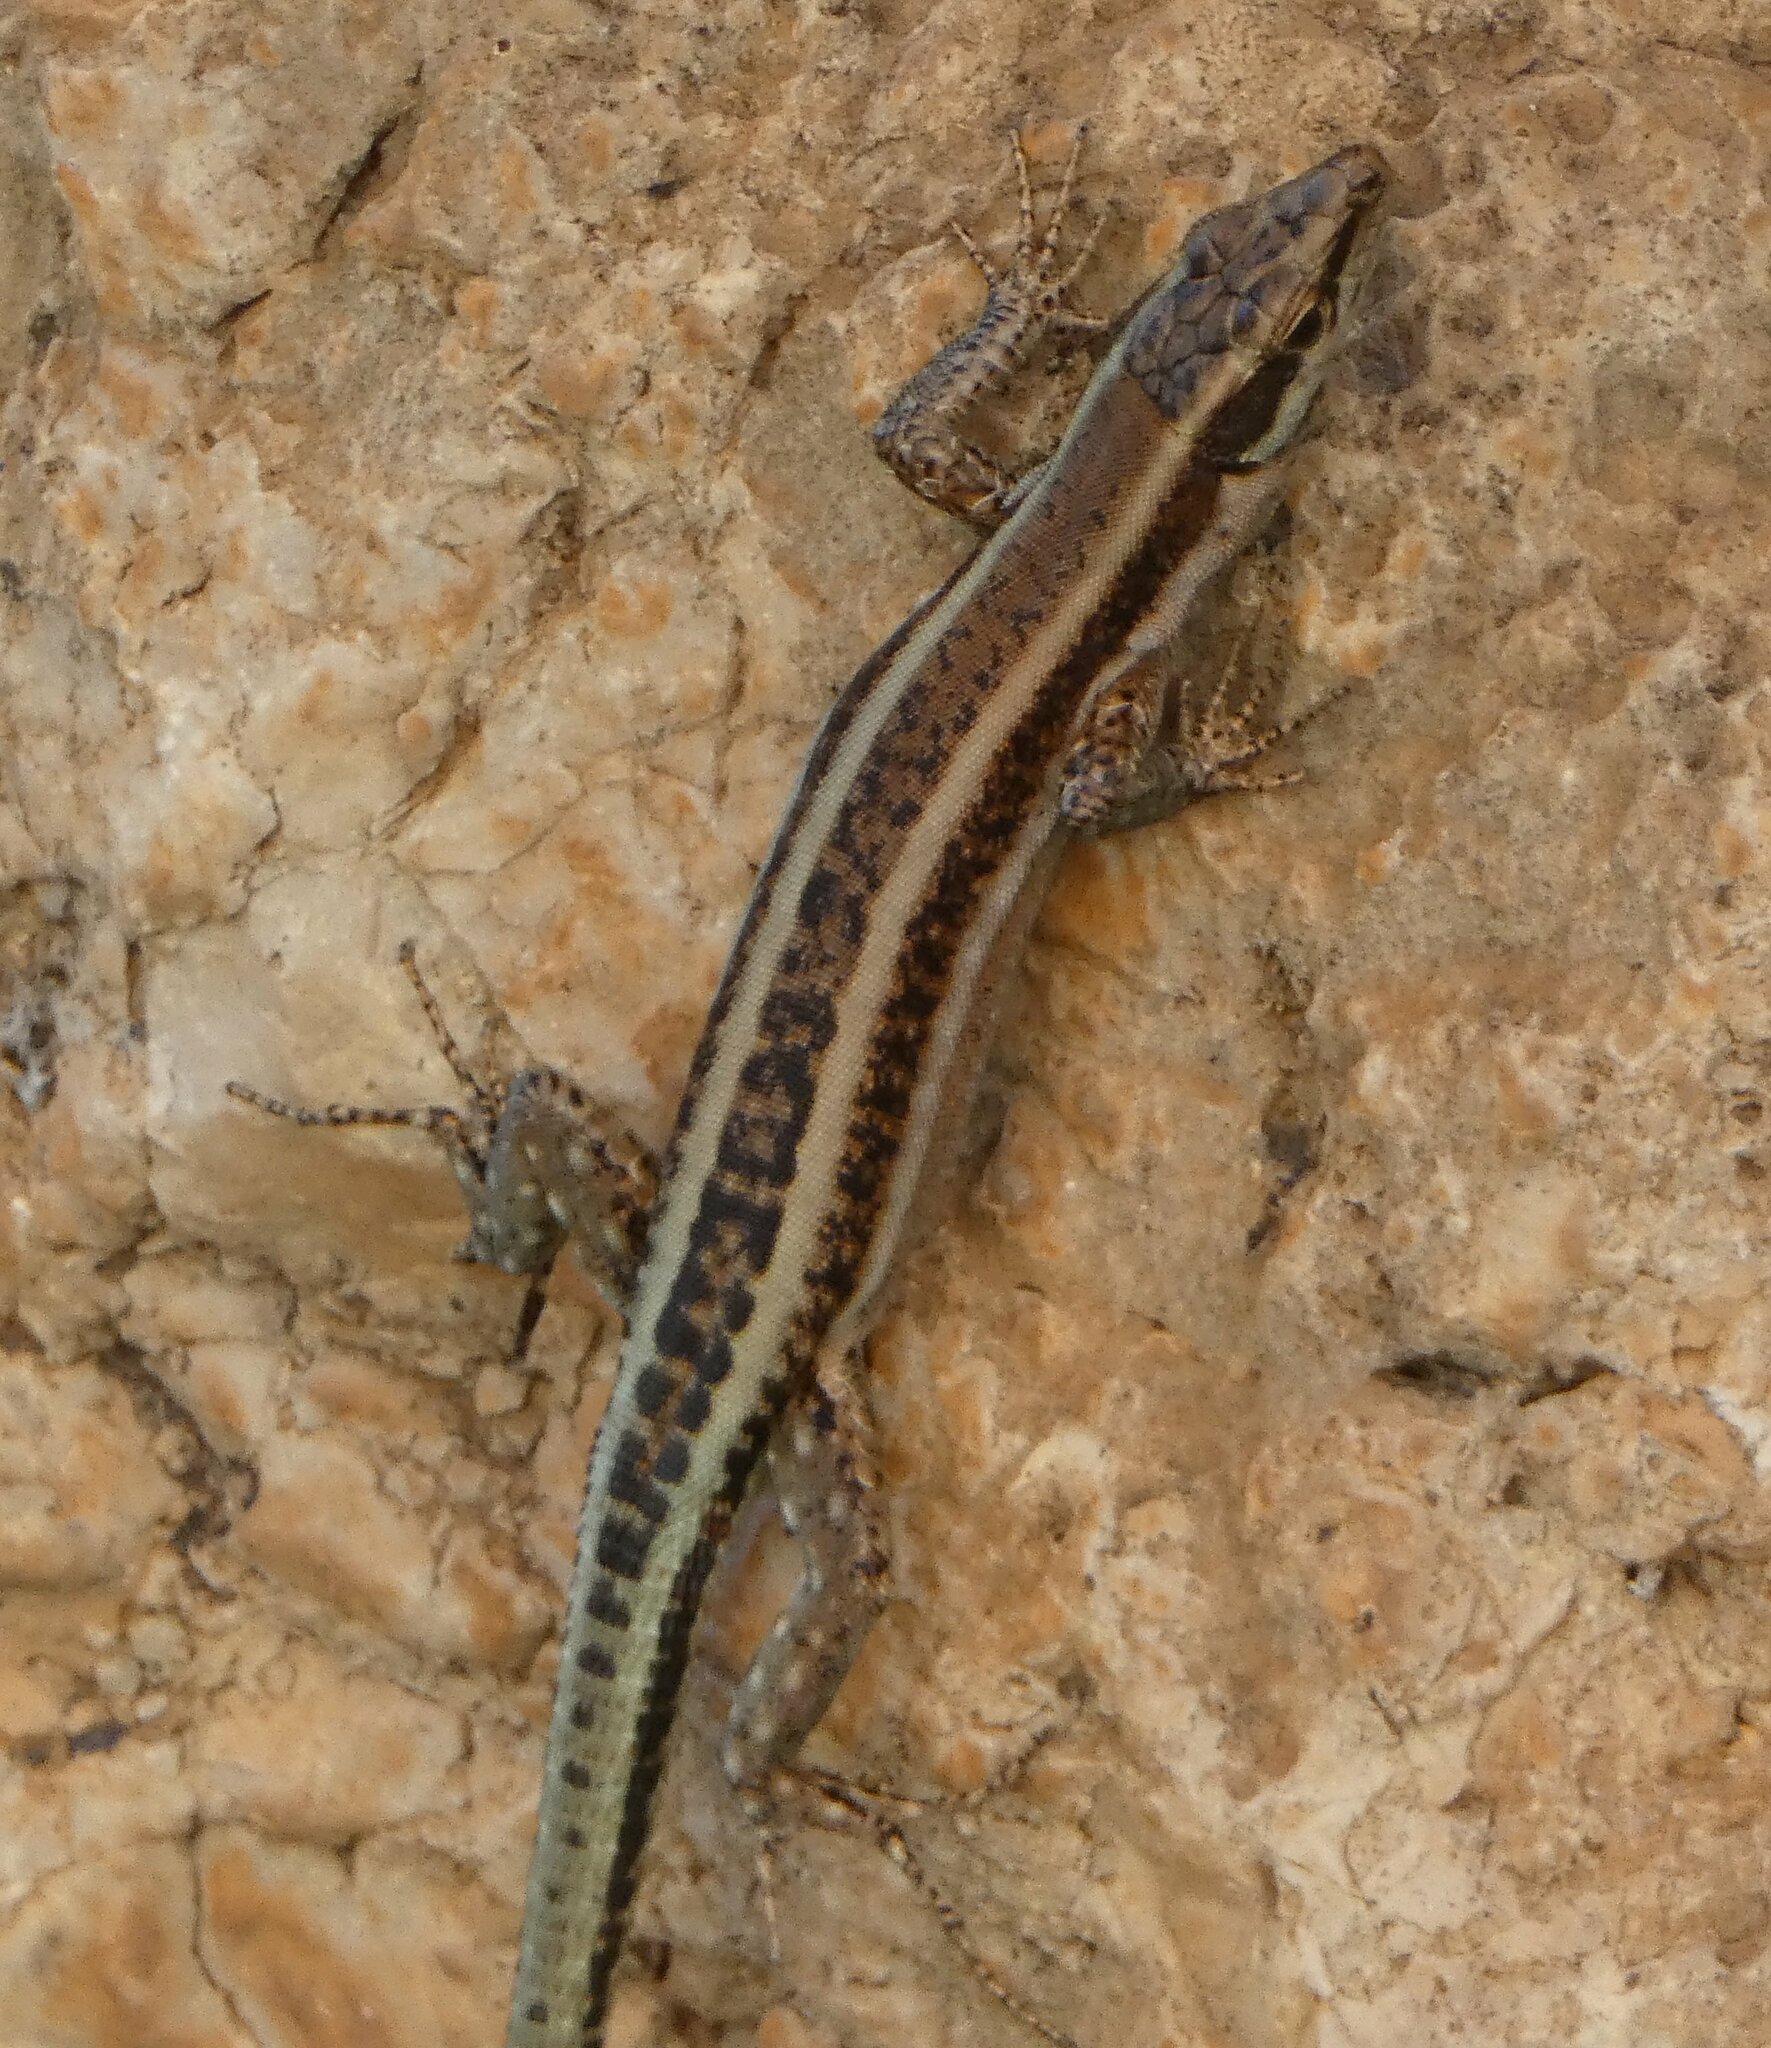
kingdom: Animalia
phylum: Chordata
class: Squamata
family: Lacertidae
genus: Anatololacerta
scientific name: Anatololacerta finikensis
